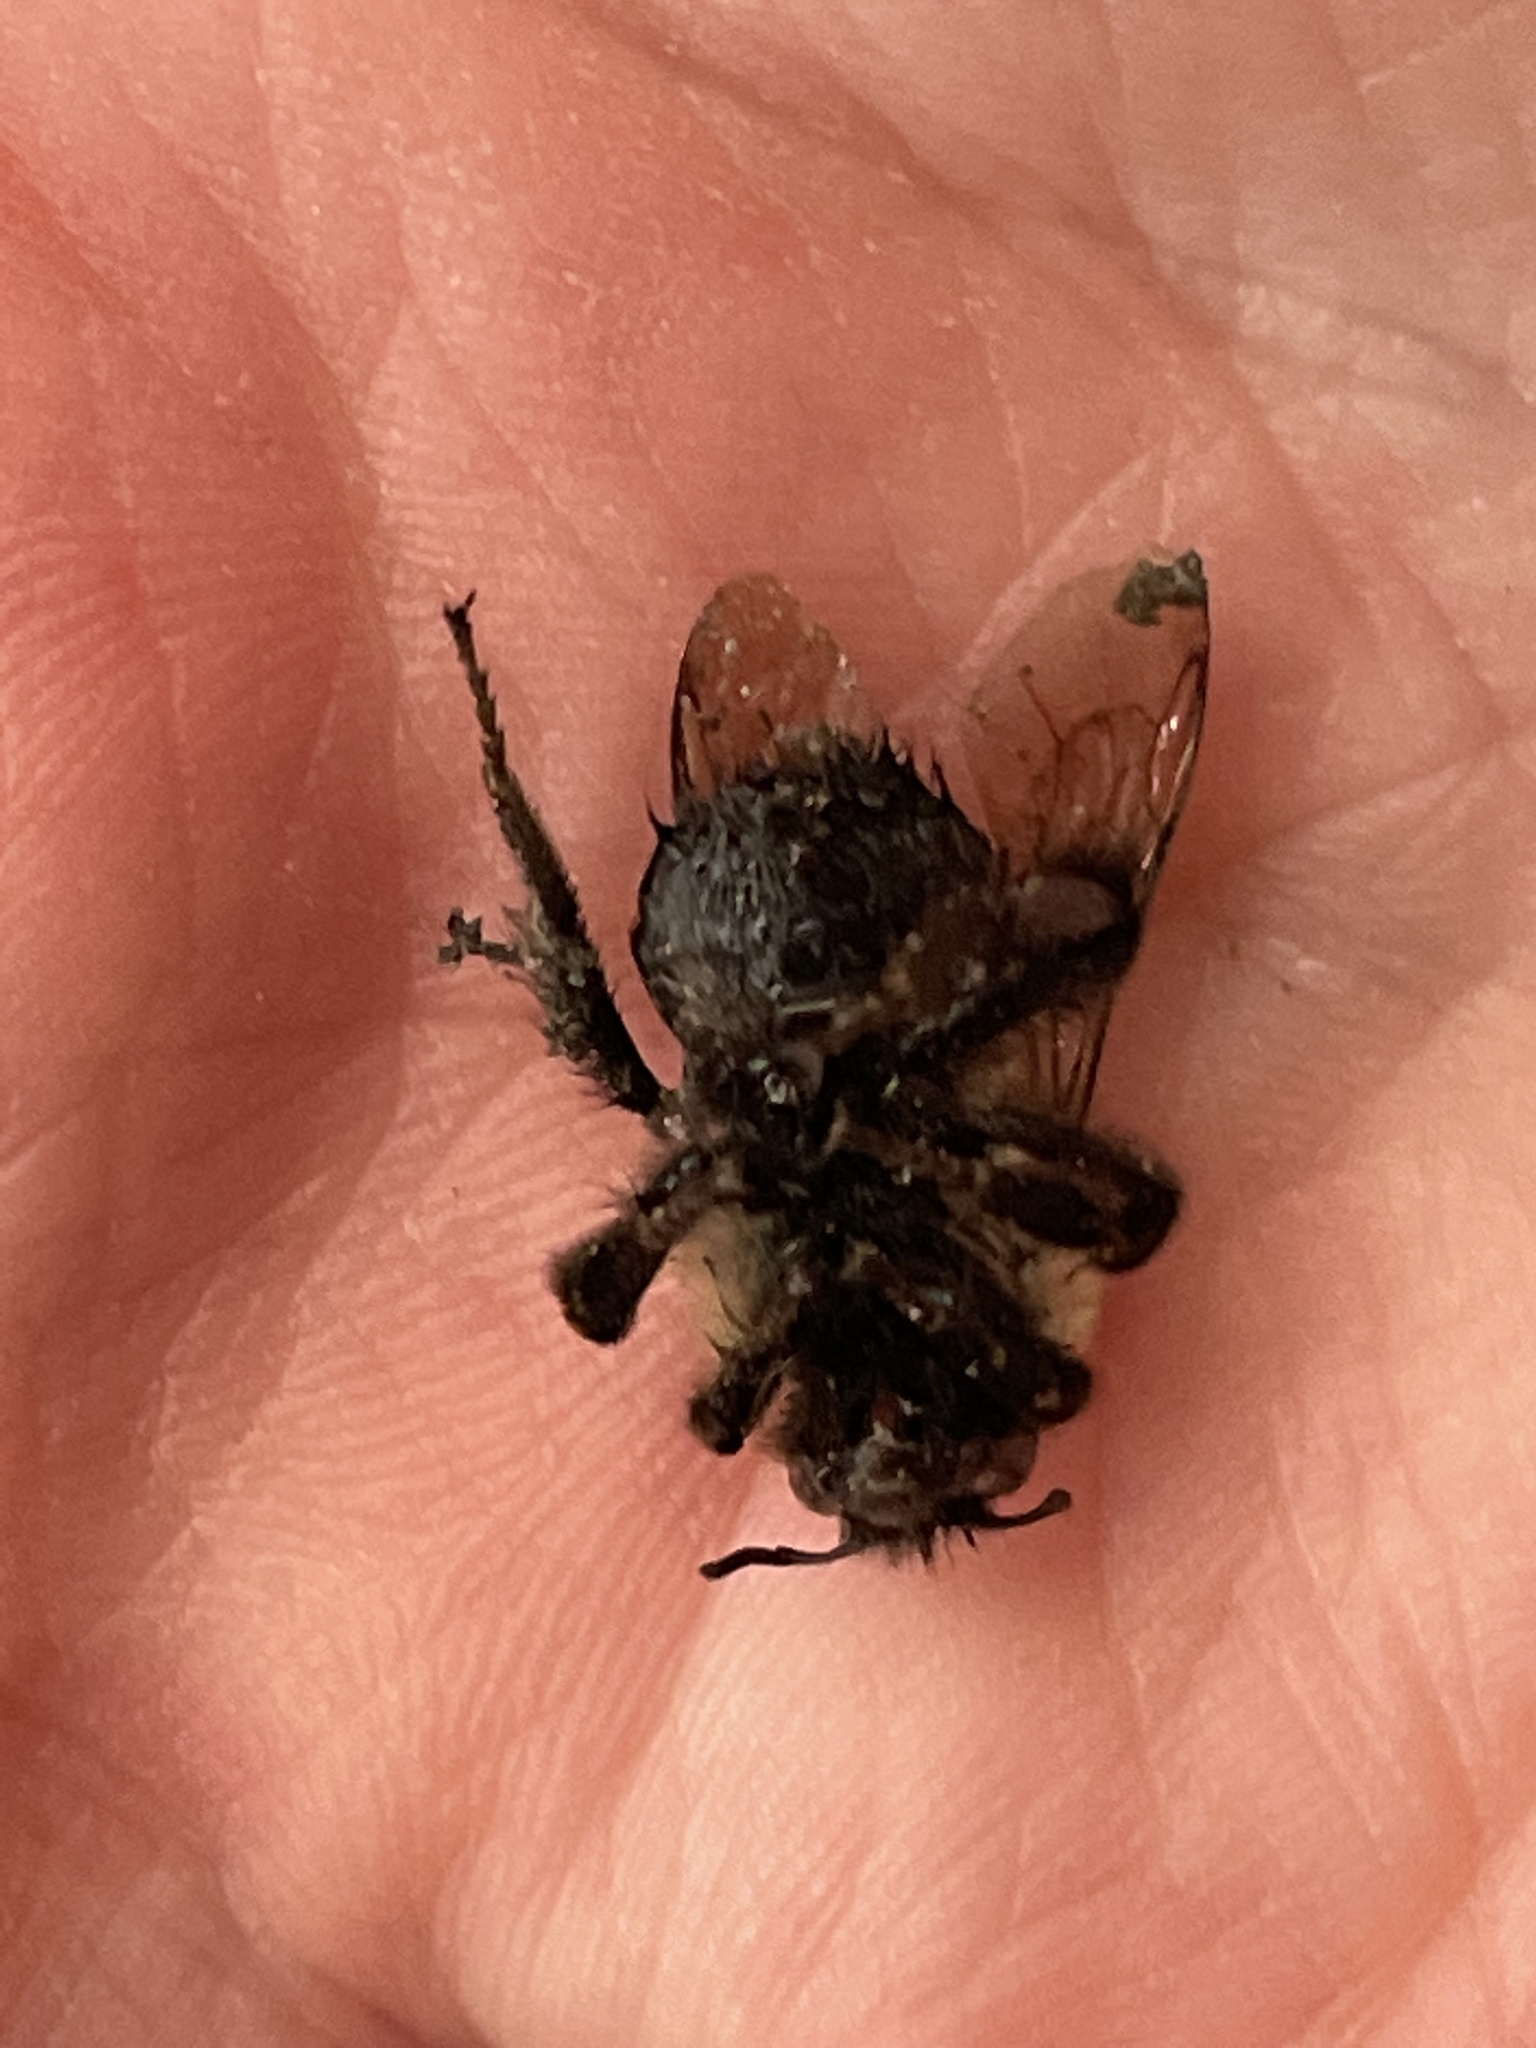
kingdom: Animalia
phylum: Arthropoda
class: Insecta
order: Hymenoptera
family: Apidae
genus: Bombus
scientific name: Bombus impatiens
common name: Common eastern bumble bee
